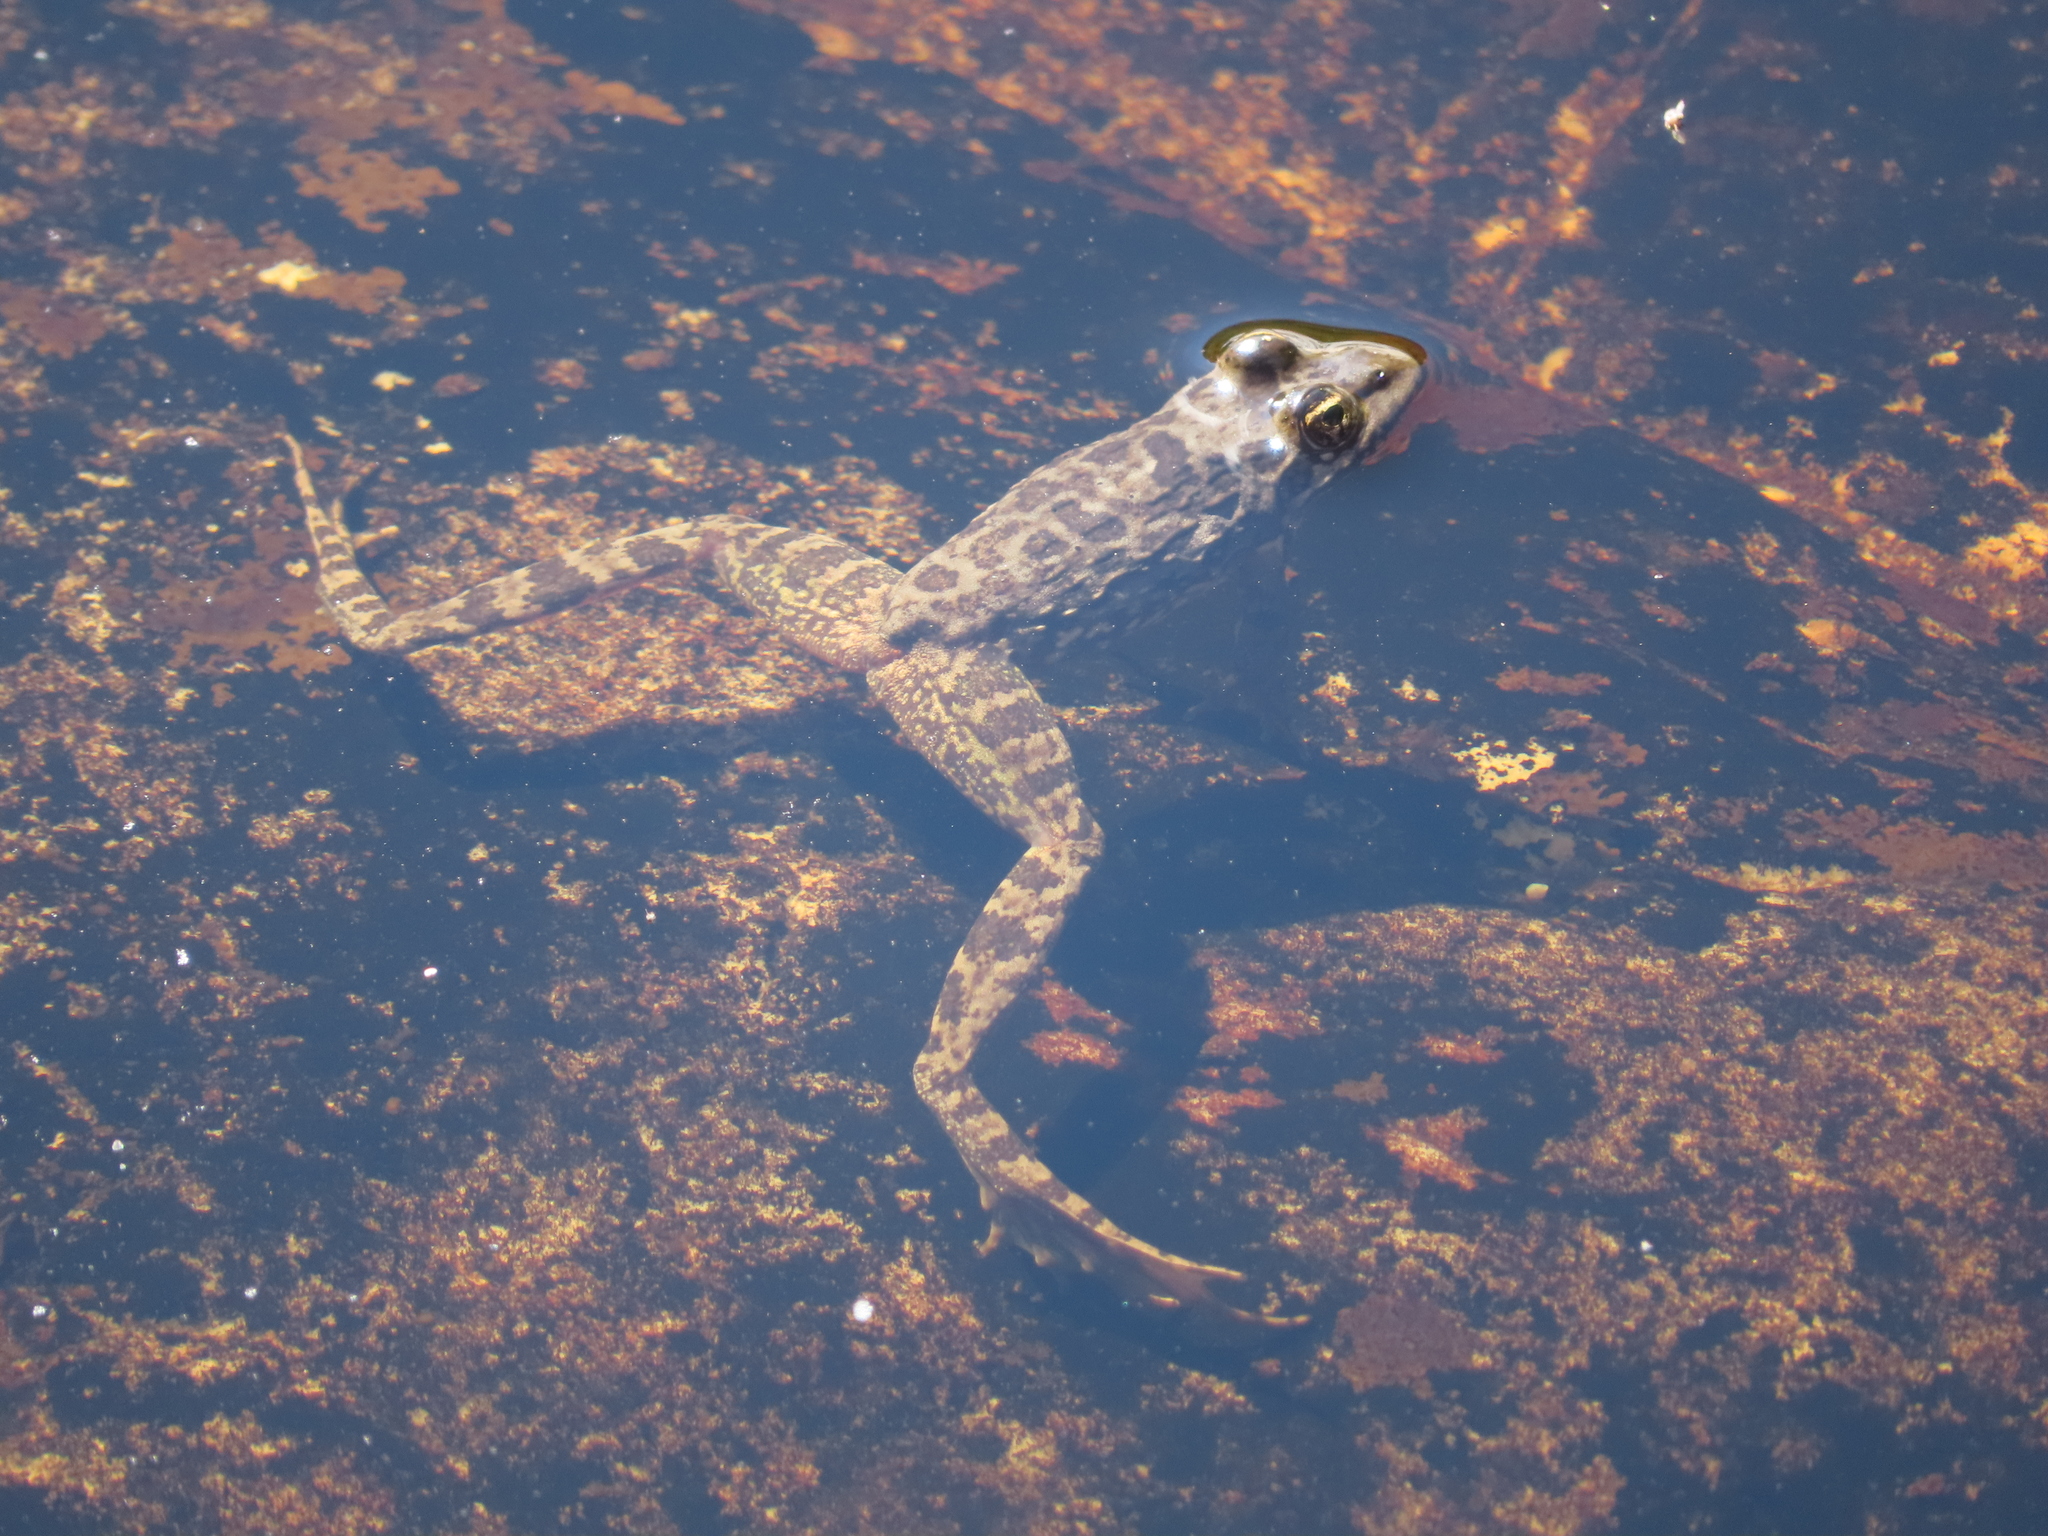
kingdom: Animalia
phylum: Chordata
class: Amphibia
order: Anura
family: Pyxicephalidae
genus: Amietia
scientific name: Amietia fuscigula
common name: Cape rana
